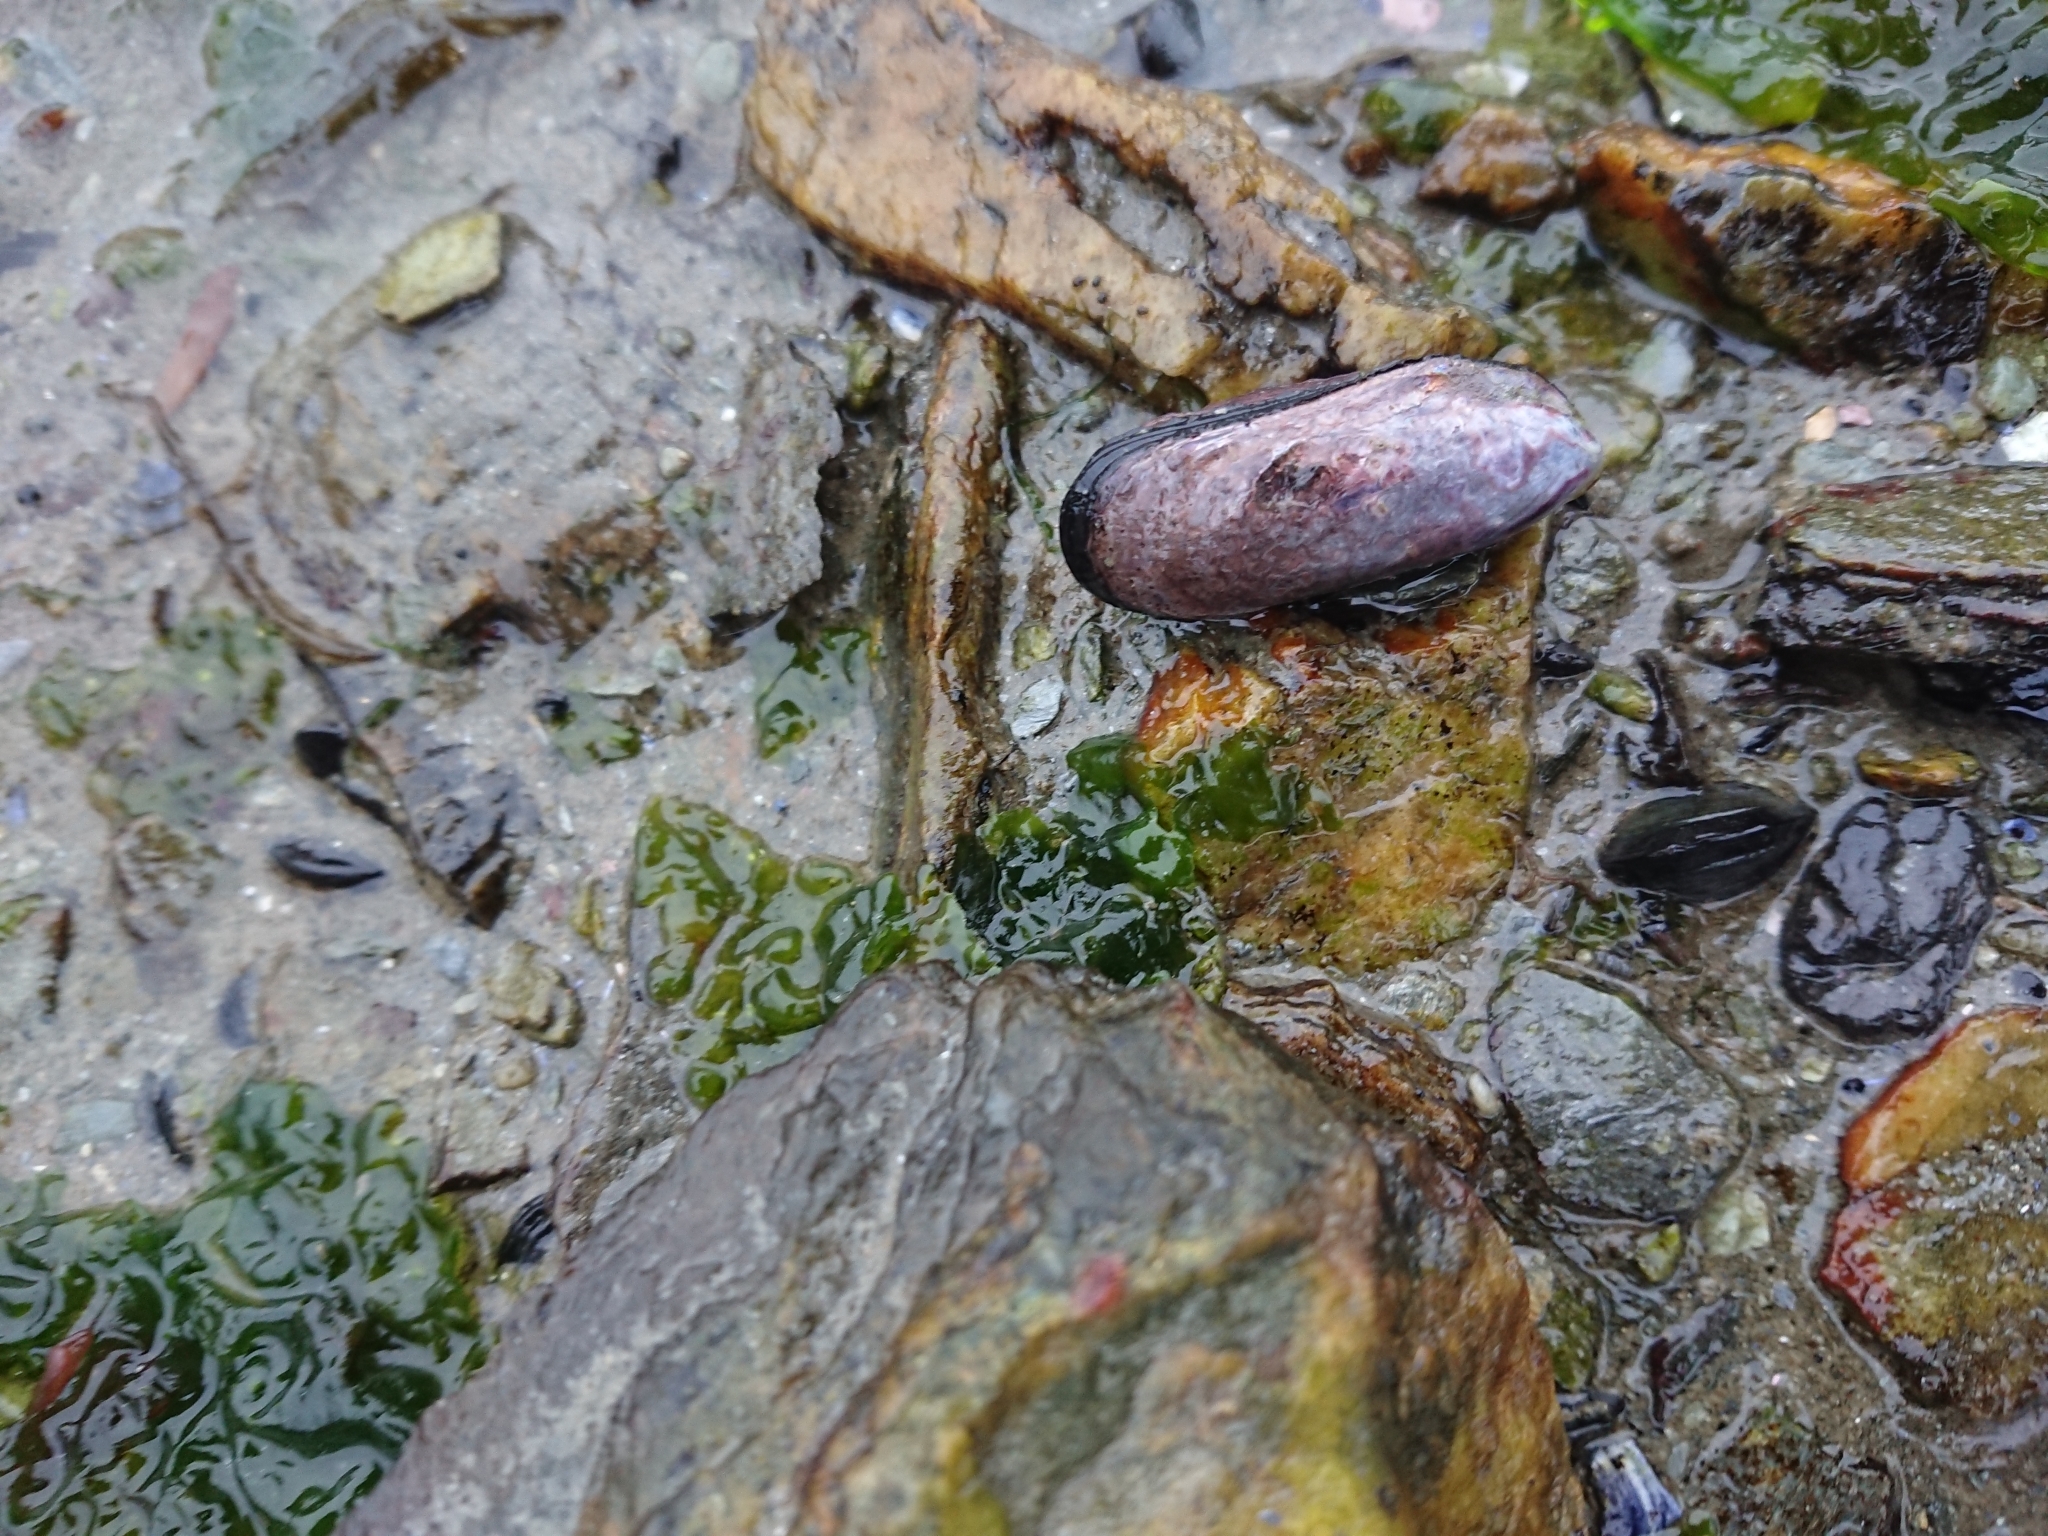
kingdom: Animalia
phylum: Mollusca
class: Bivalvia
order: Mytilida
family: Mytilidae
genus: Perumytilus
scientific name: Perumytilus purpuratus
